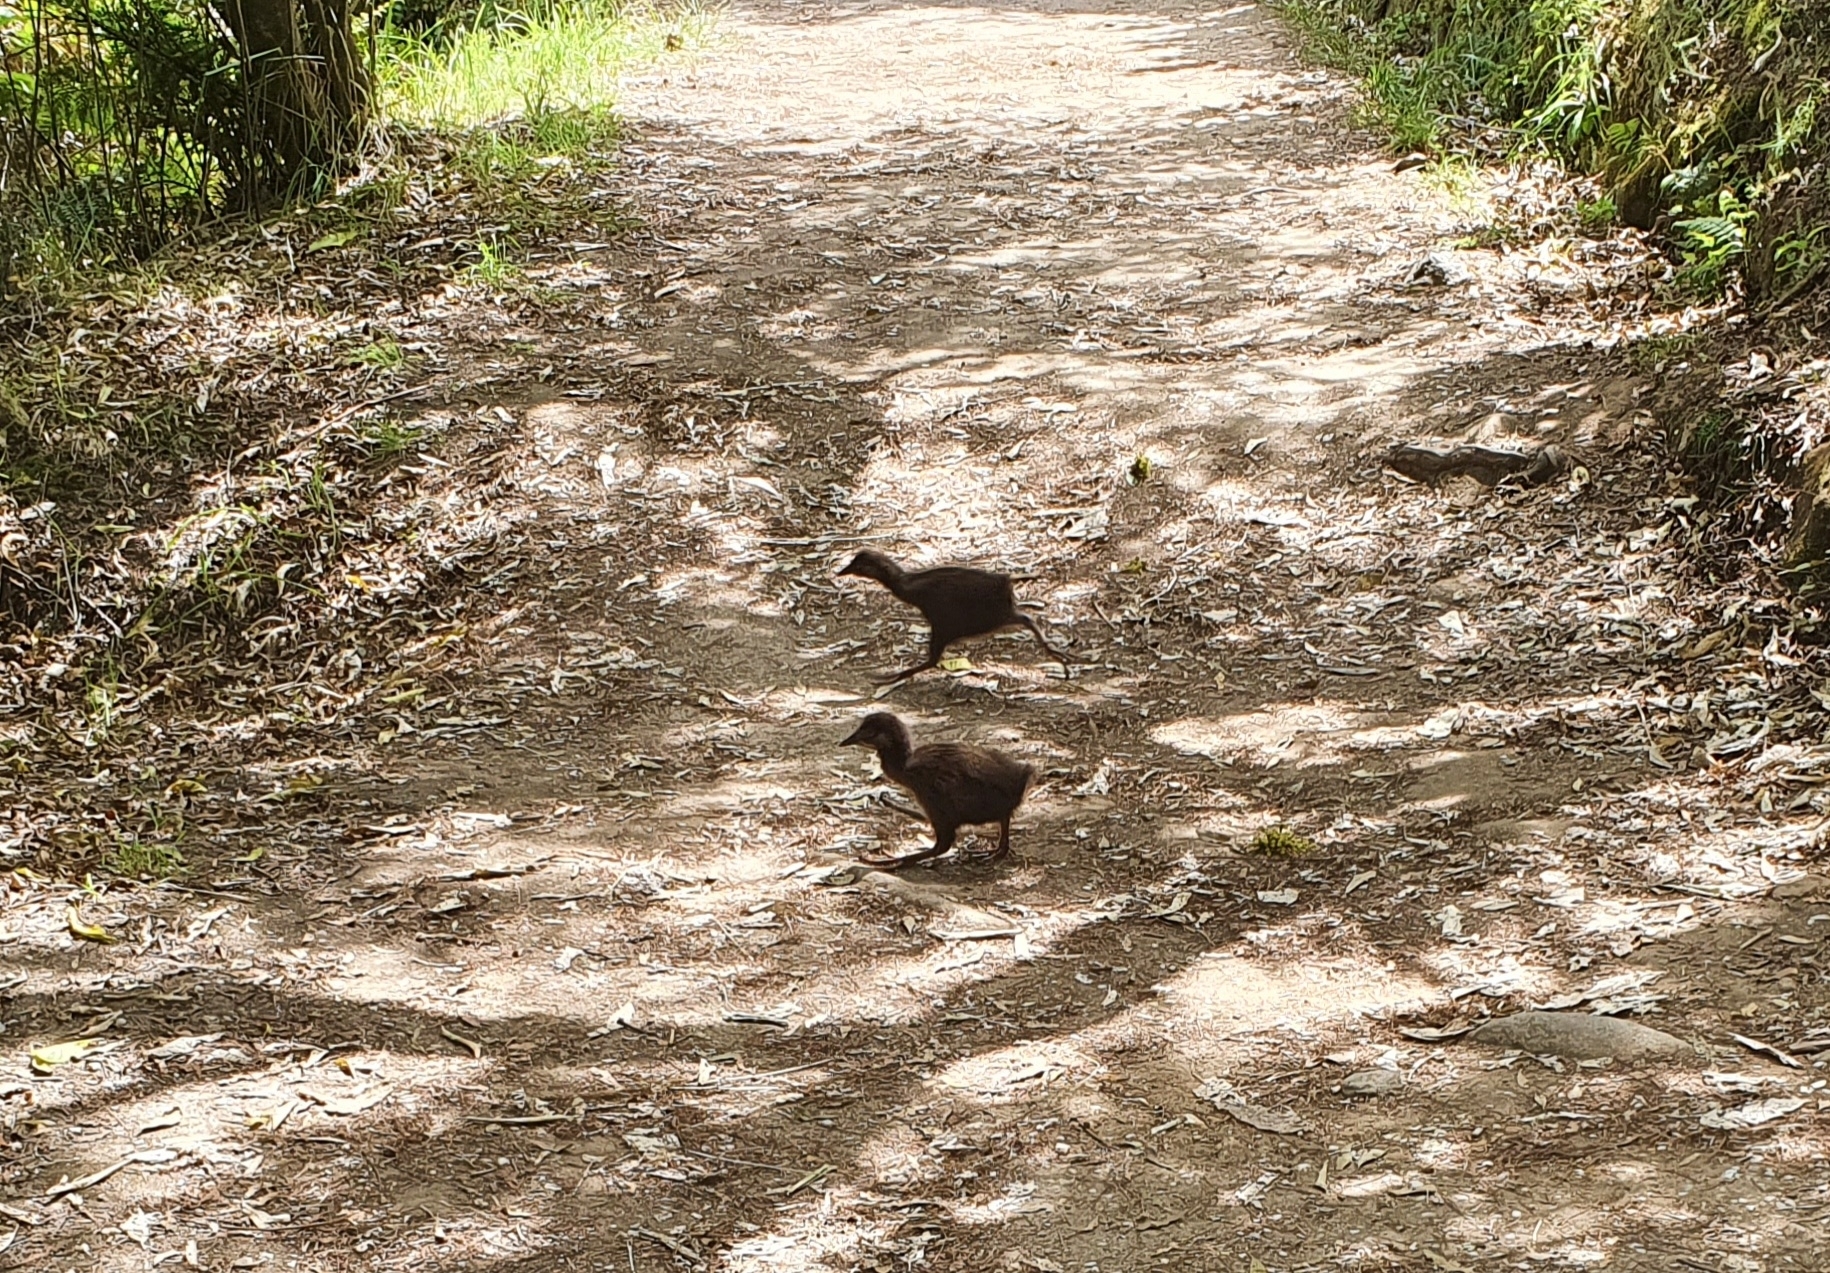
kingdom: Animalia
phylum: Chordata
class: Aves
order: Gruiformes
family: Rallidae
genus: Gallirallus
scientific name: Gallirallus australis
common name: Weka
